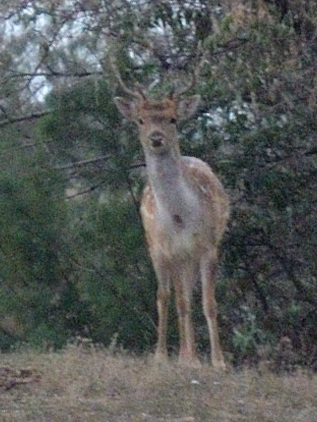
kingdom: Animalia
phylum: Chordata
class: Mammalia
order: Artiodactyla
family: Cervidae
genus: Dama
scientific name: Dama dama
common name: Fallow deer
